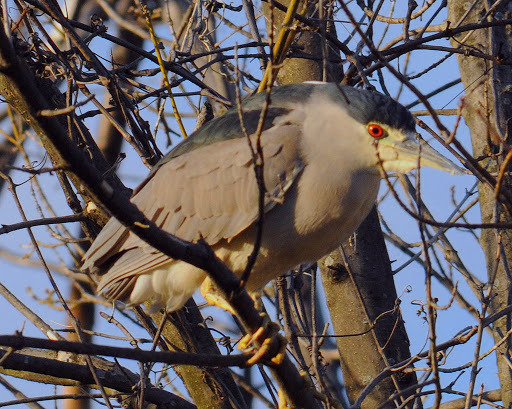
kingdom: Animalia
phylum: Chordata
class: Aves
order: Pelecaniformes
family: Ardeidae
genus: Nycticorax
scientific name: Nycticorax nycticorax
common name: Black-crowned night heron
